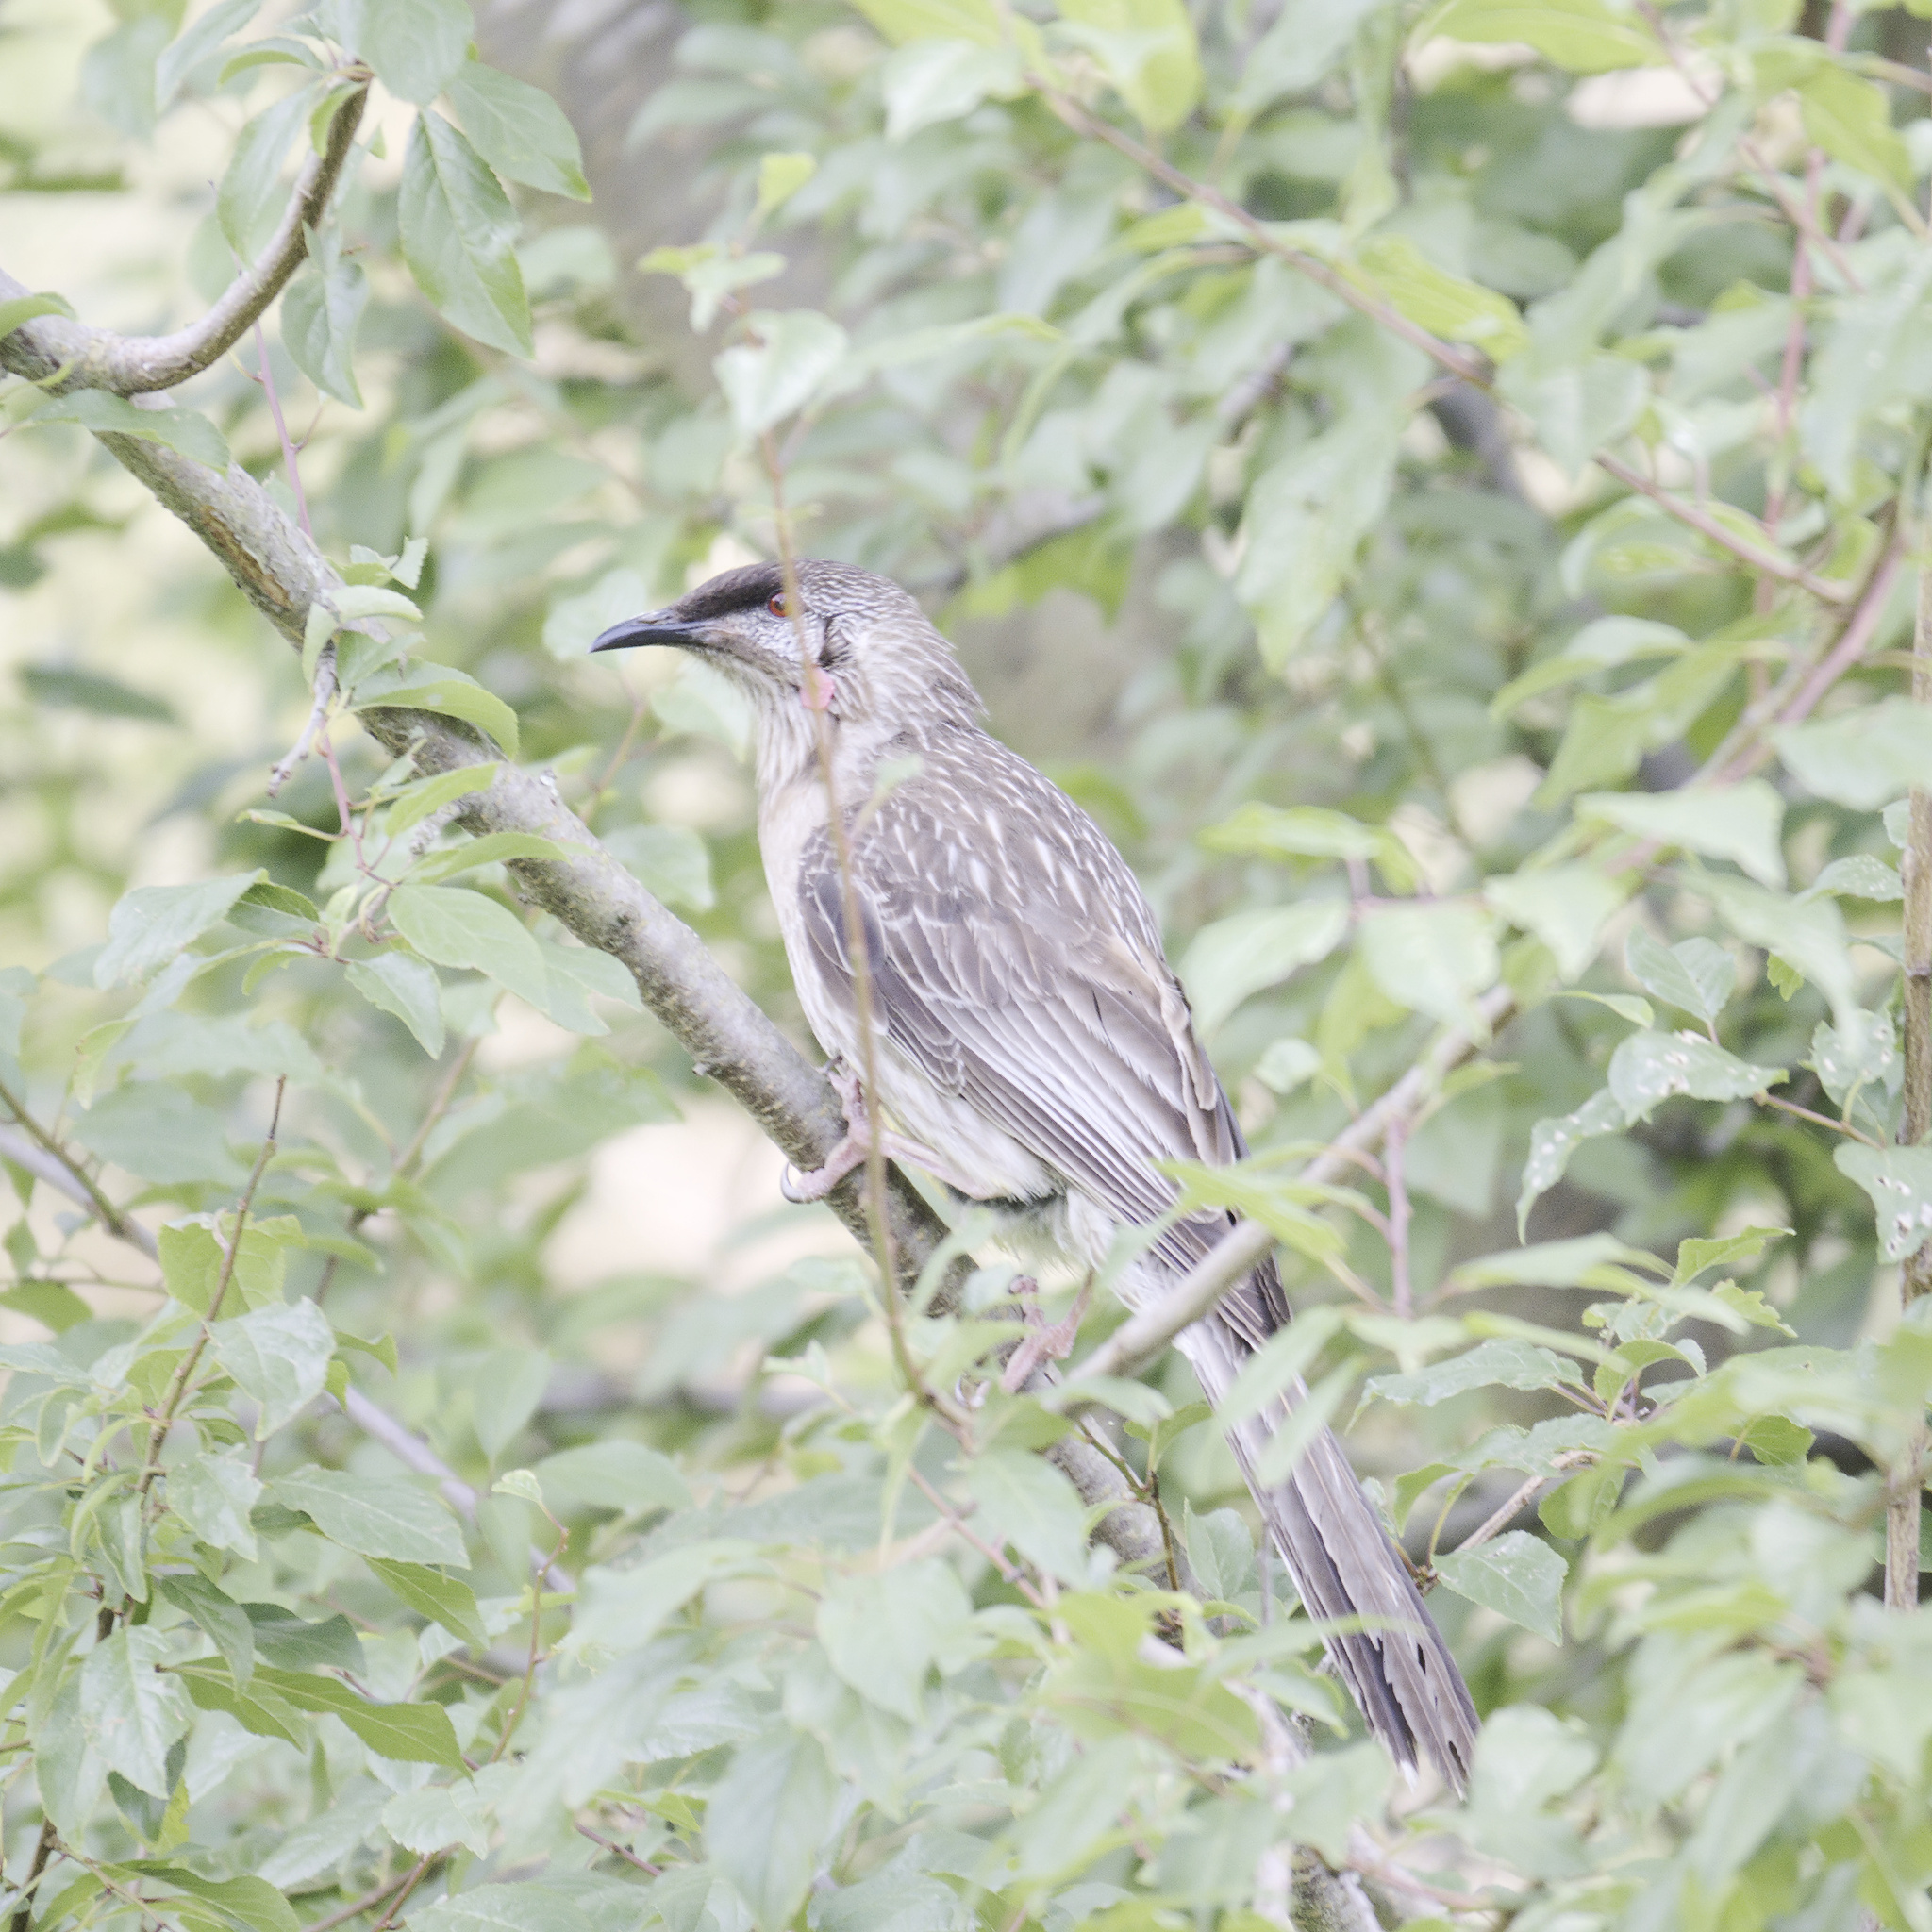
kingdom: Animalia
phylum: Chordata
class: Aves
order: Passeriformes
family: Meliphagidae
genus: Anthochaera
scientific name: Anthochaera carunculata
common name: Red wattlebird
